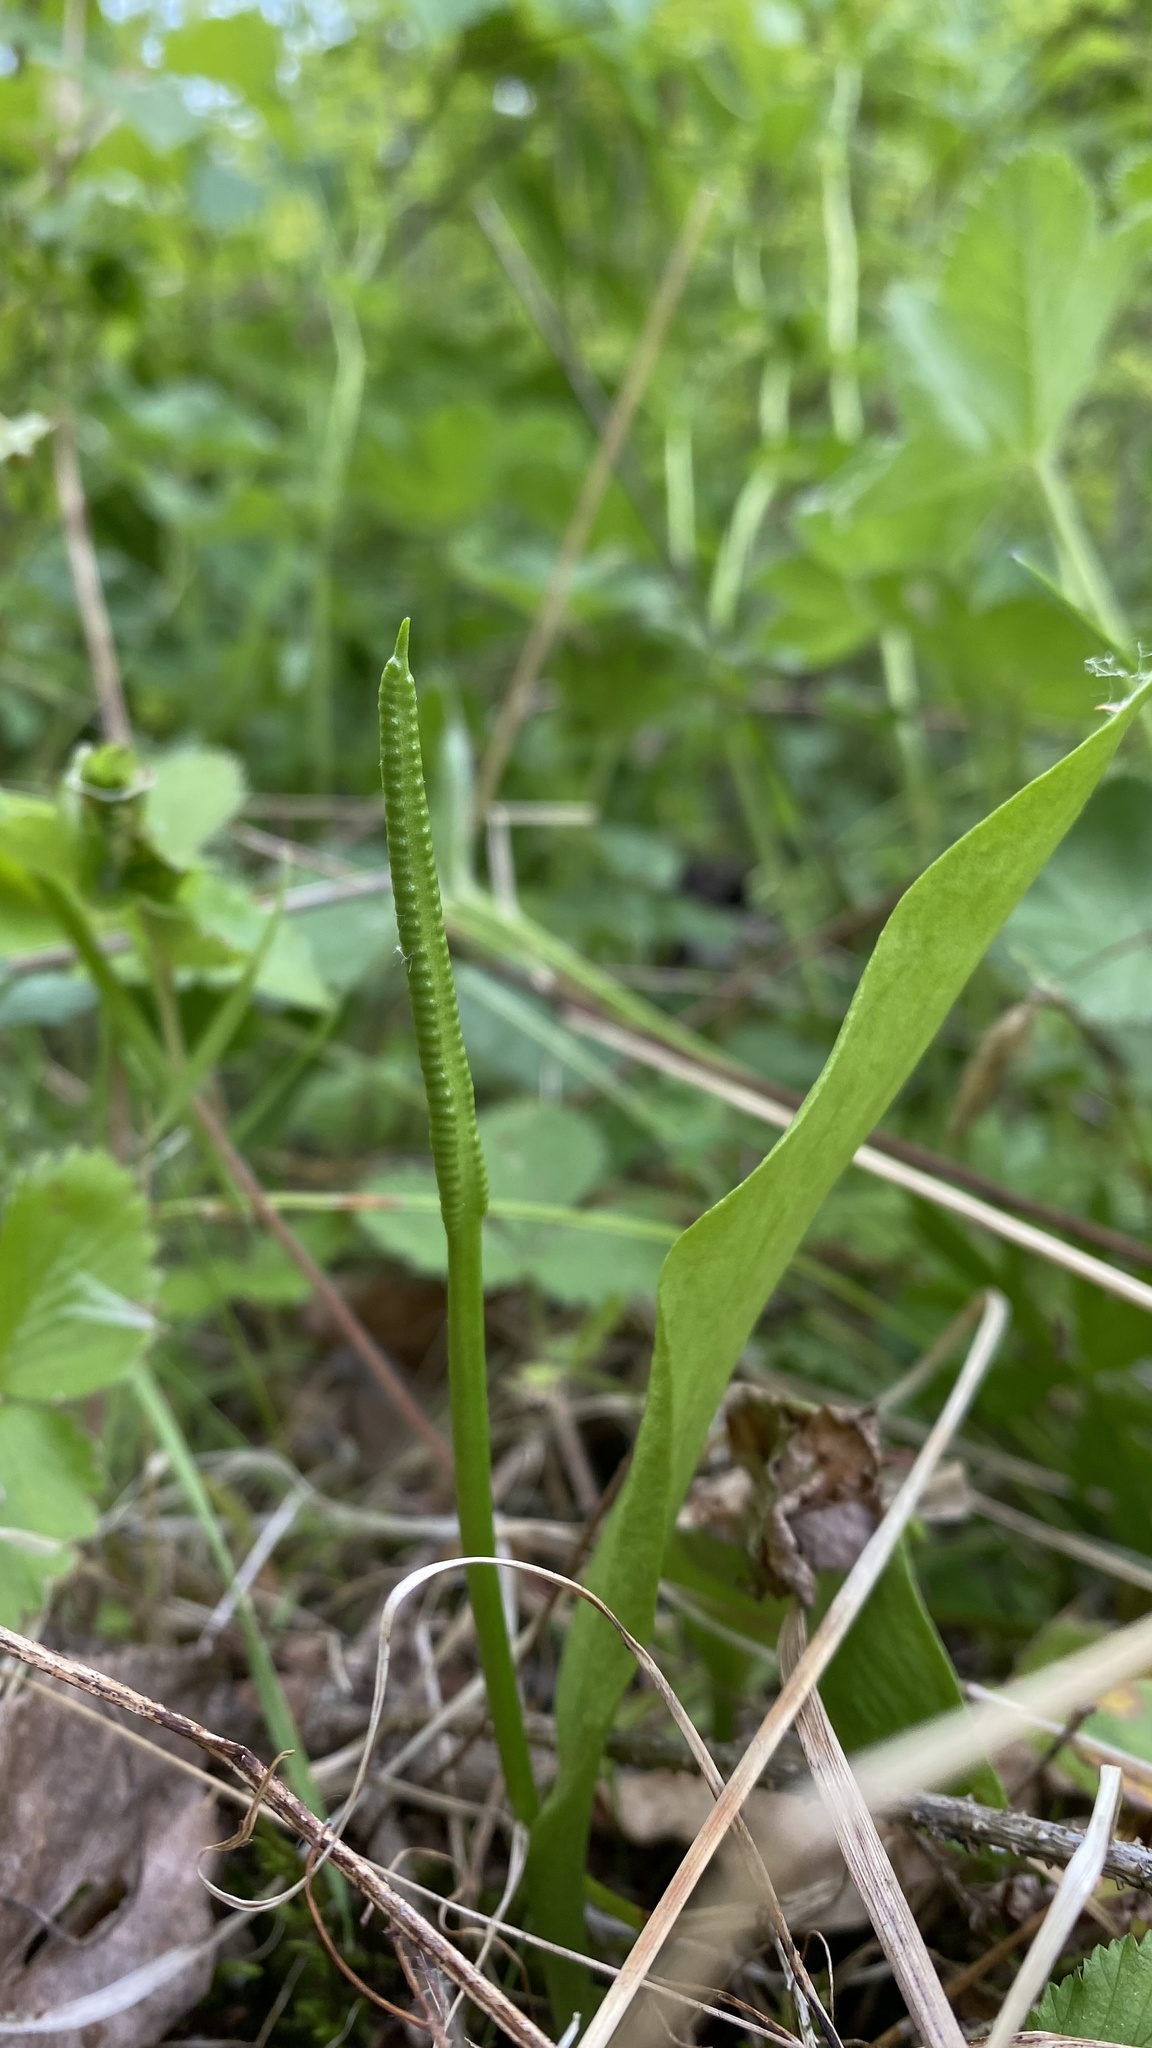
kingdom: Plantae
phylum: Tracheophyta
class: Polypodiopsida
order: Ophioglossales
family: Ophioglossaceae
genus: Ophioglossum
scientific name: Ophioglossum vulgatum
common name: Adder's-tongue
